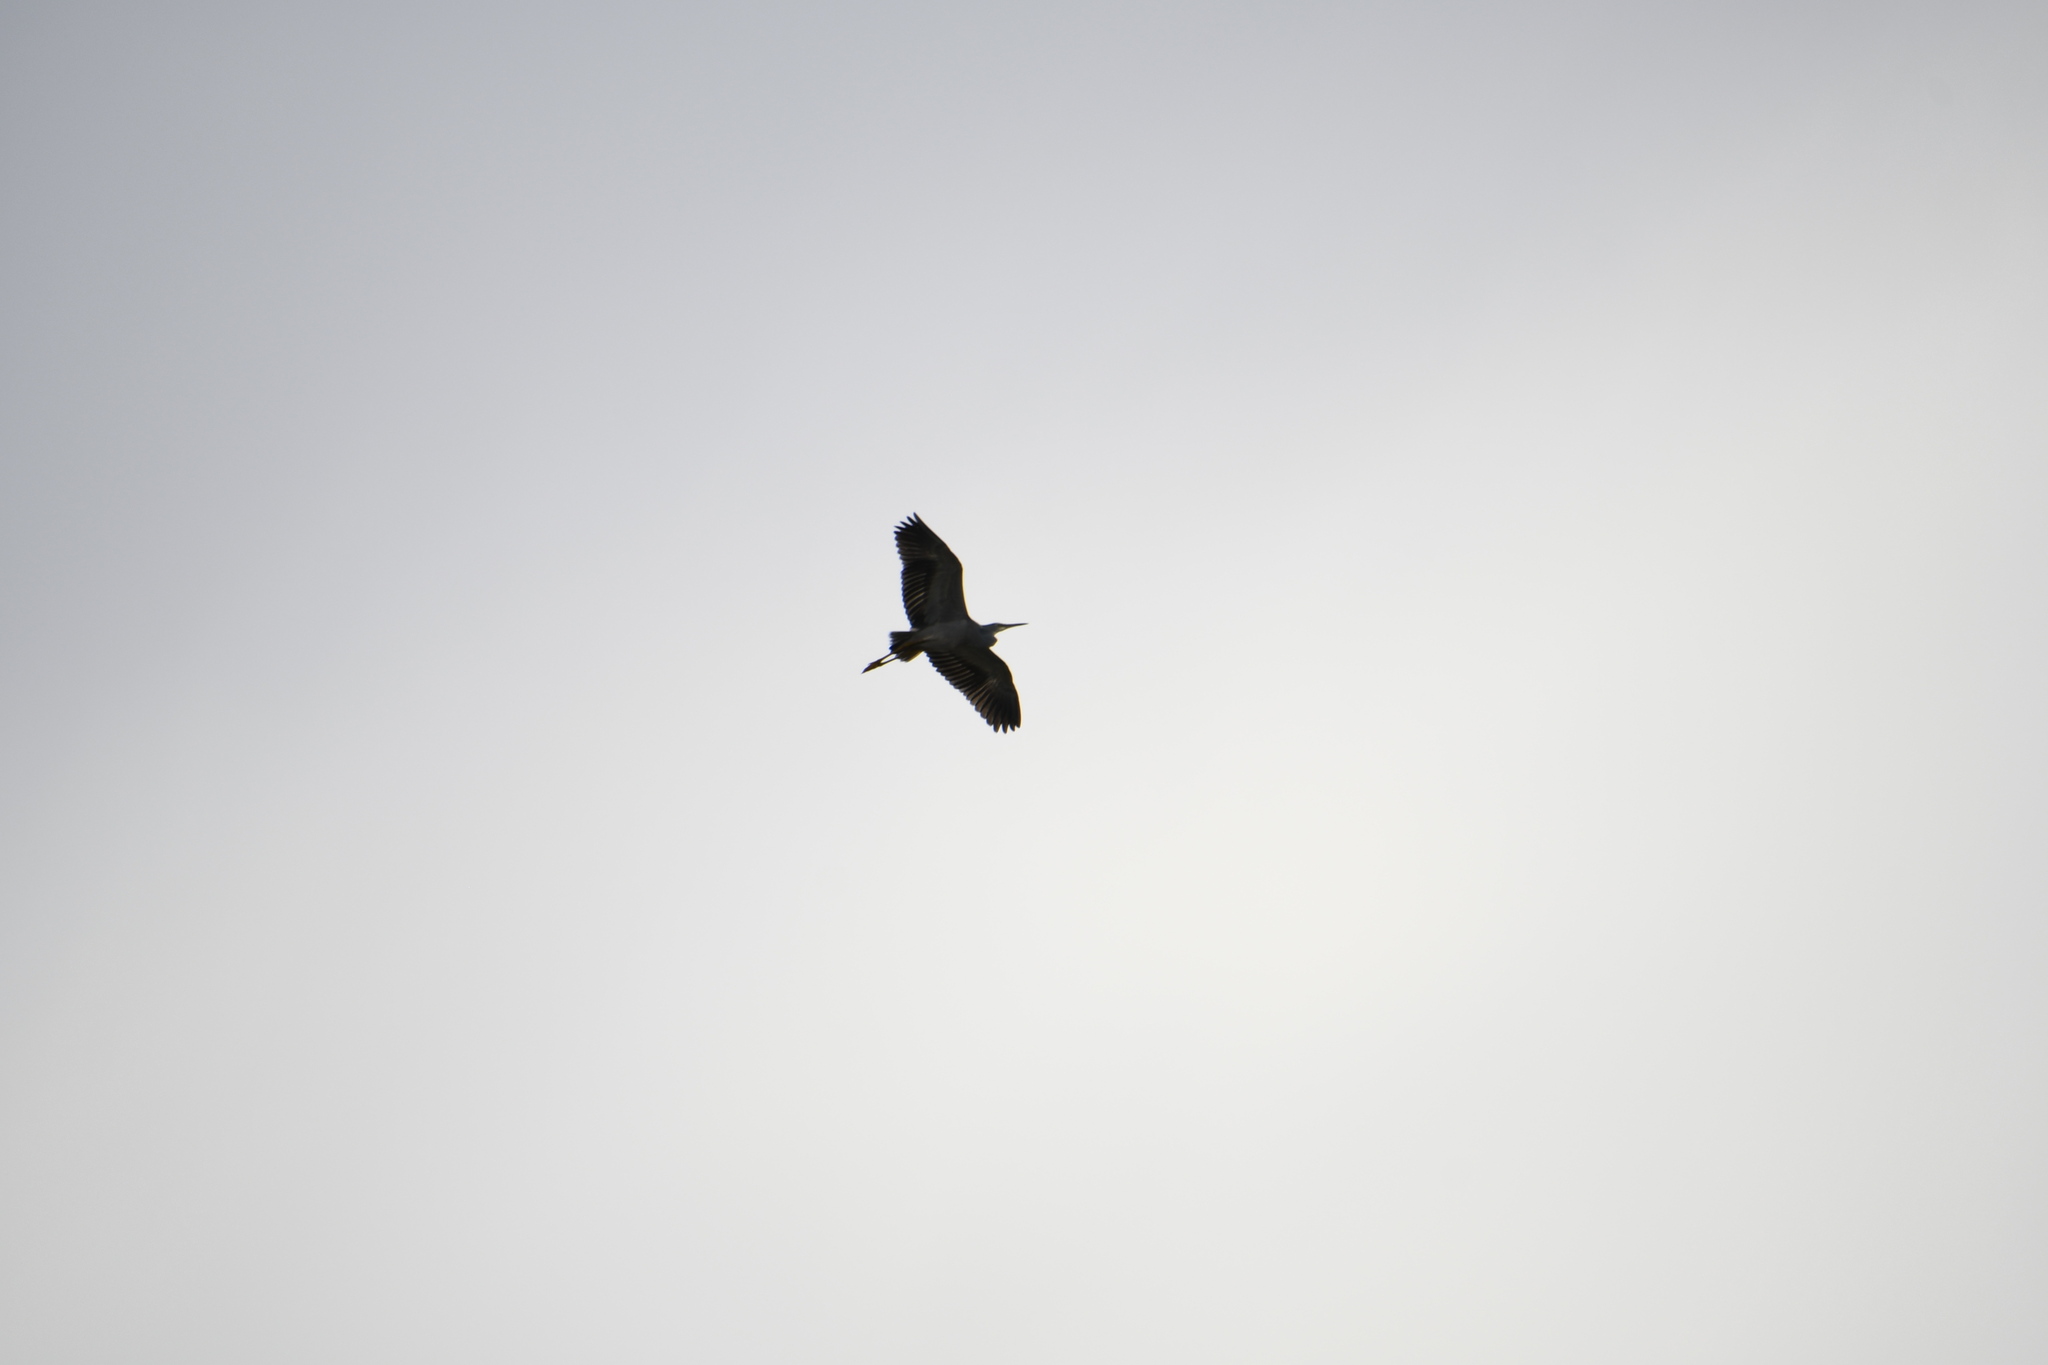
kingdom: Animalia
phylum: Chordata
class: Aves
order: Pelecaniformes
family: Ardeidae
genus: Egretta
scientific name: Egretta novaehollandiae
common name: White-faced heron
